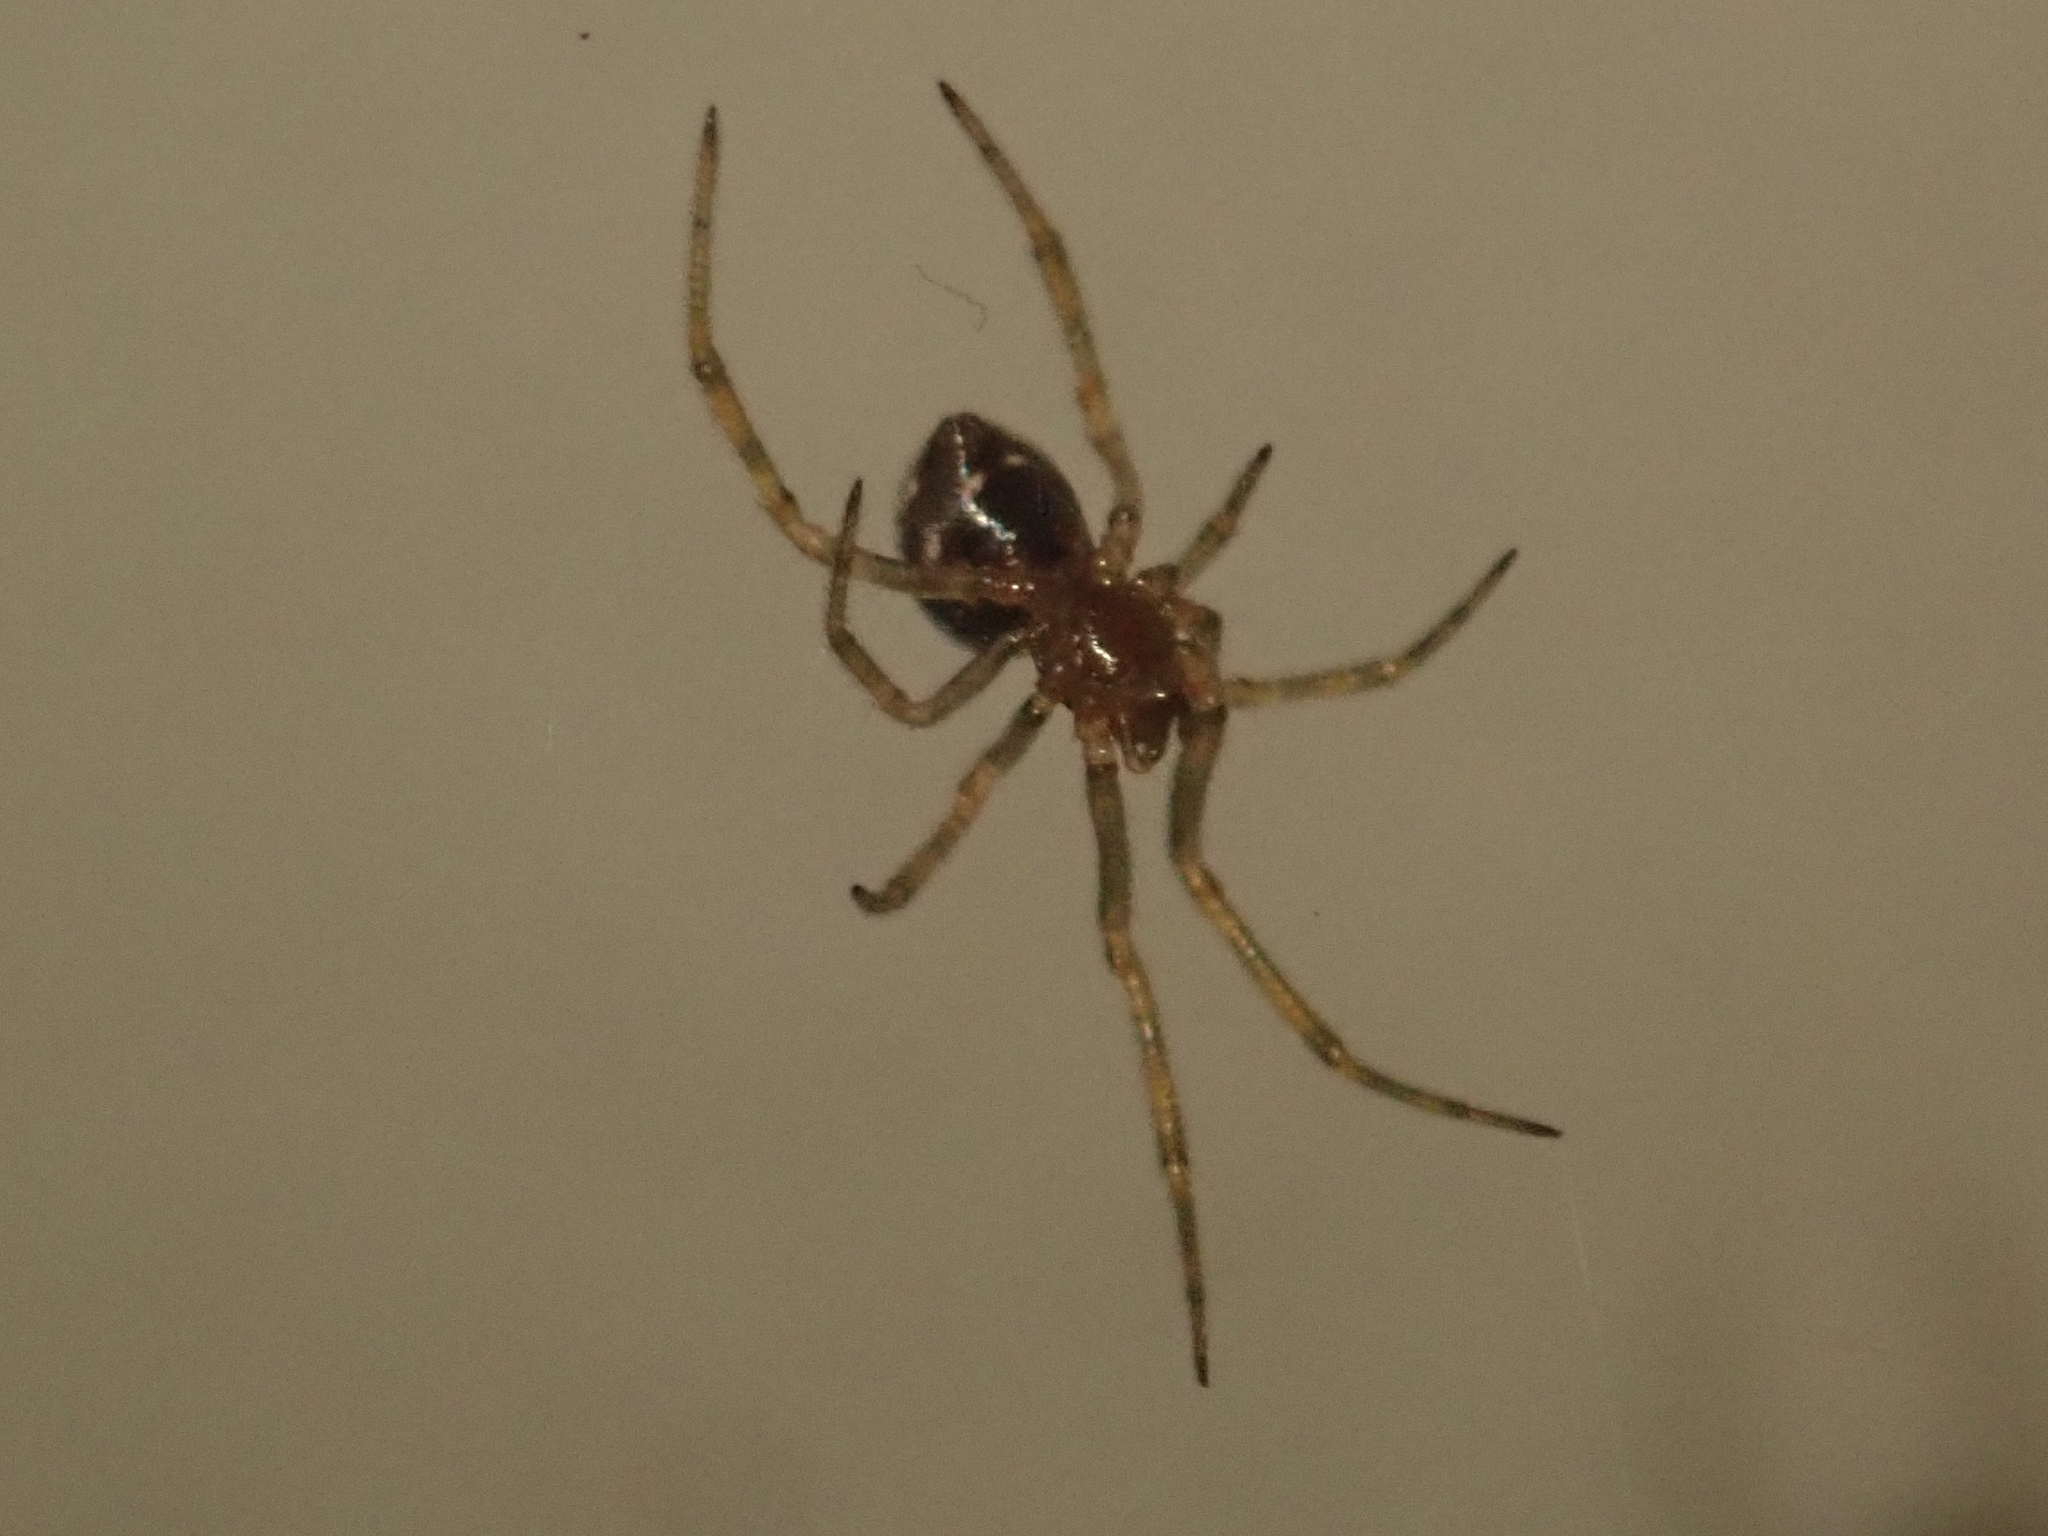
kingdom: Animalia
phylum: Arthropoda
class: Arachnida
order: Araneae
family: Theridiidae
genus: Steatoda
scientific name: Steatoda triangulosa
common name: Triangulate bud spider
